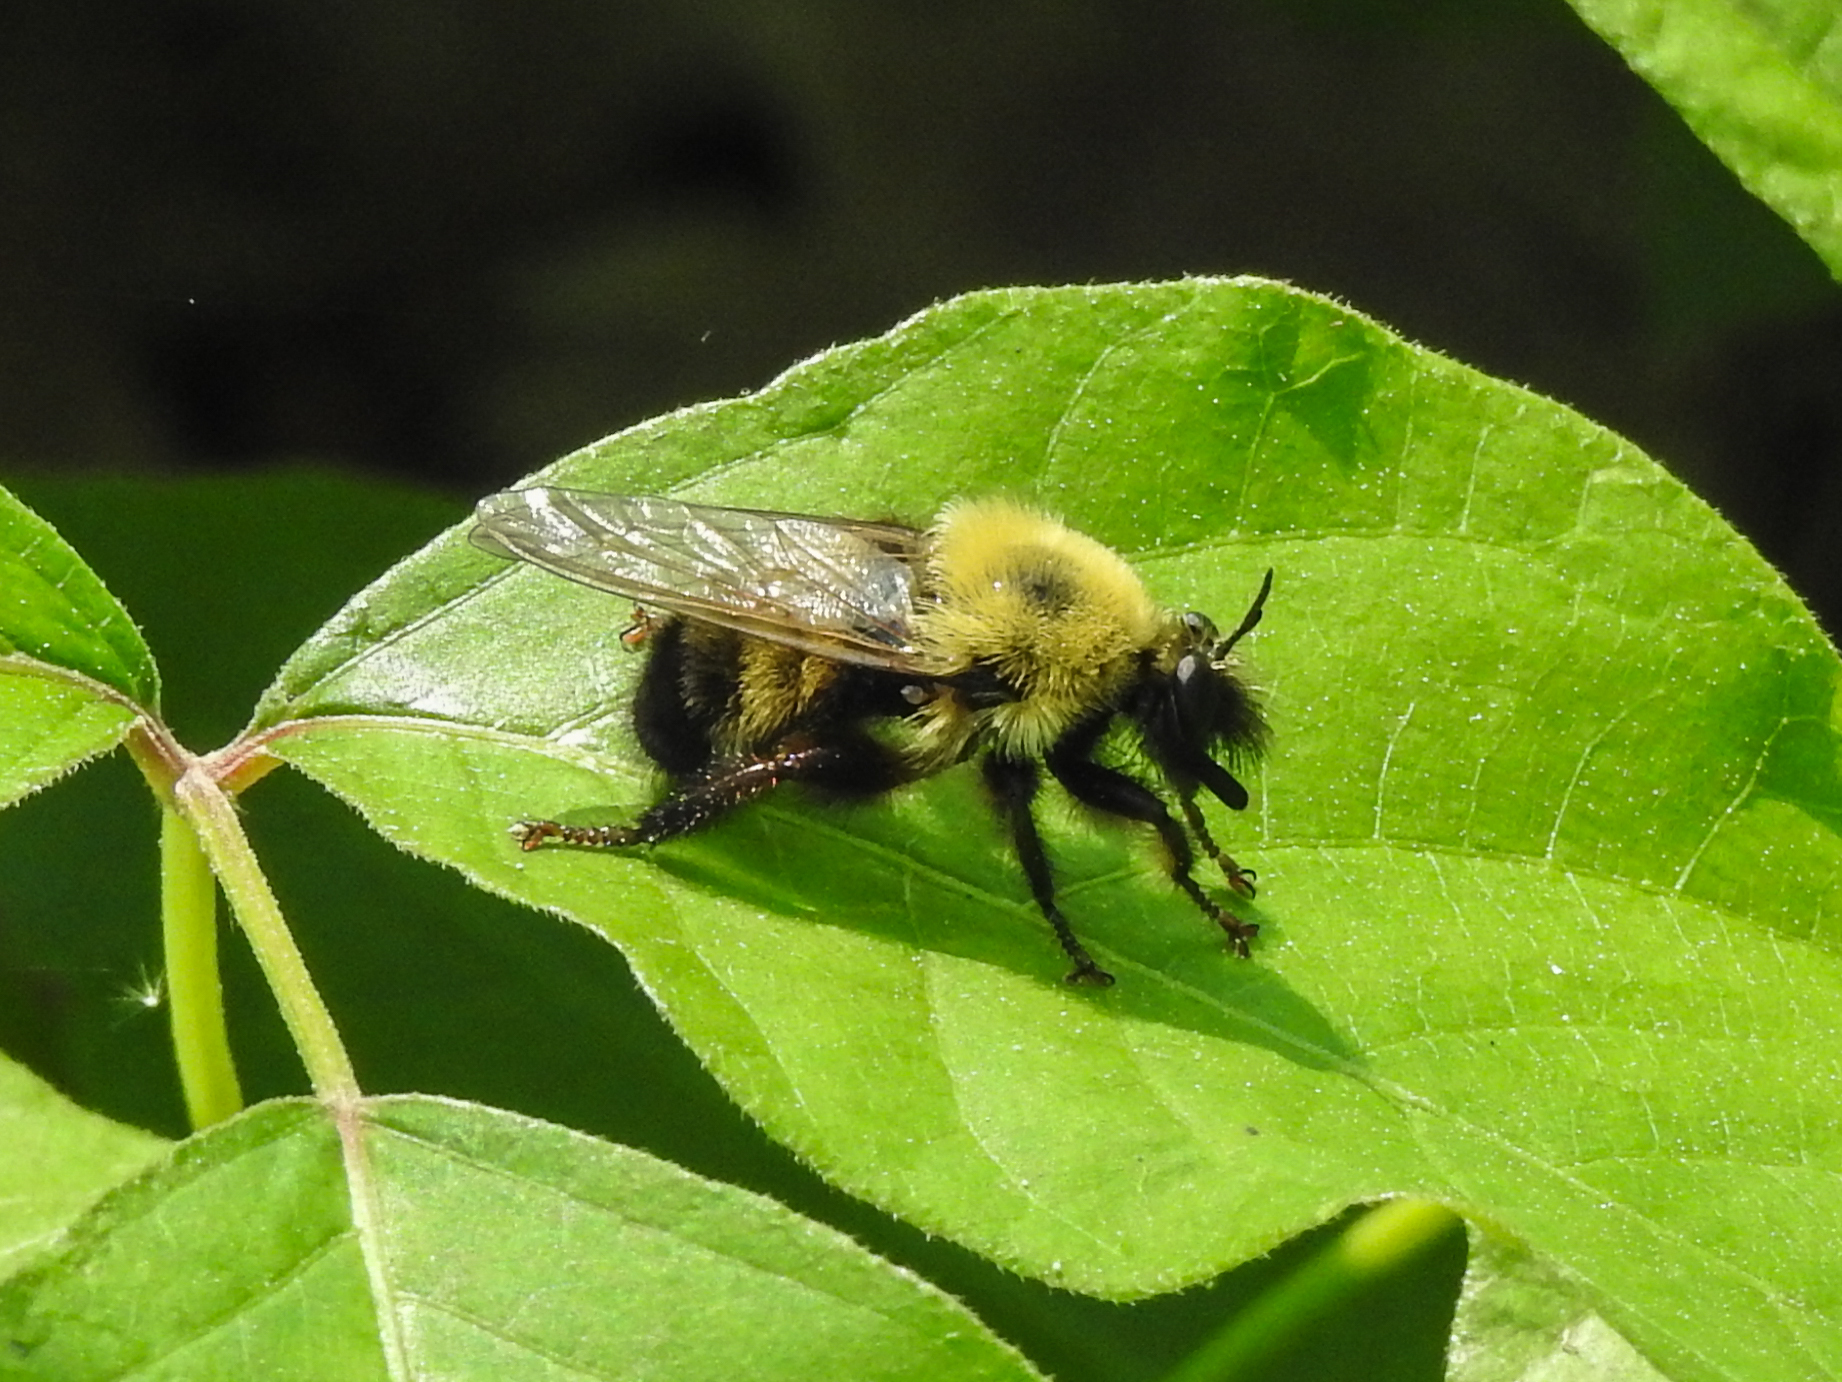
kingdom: Animalia
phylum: Arthropoda
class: Insecta
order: Diptera
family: Asilidae
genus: Laphria
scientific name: Laphria thoracica
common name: Bumble bee mimic robber fly
